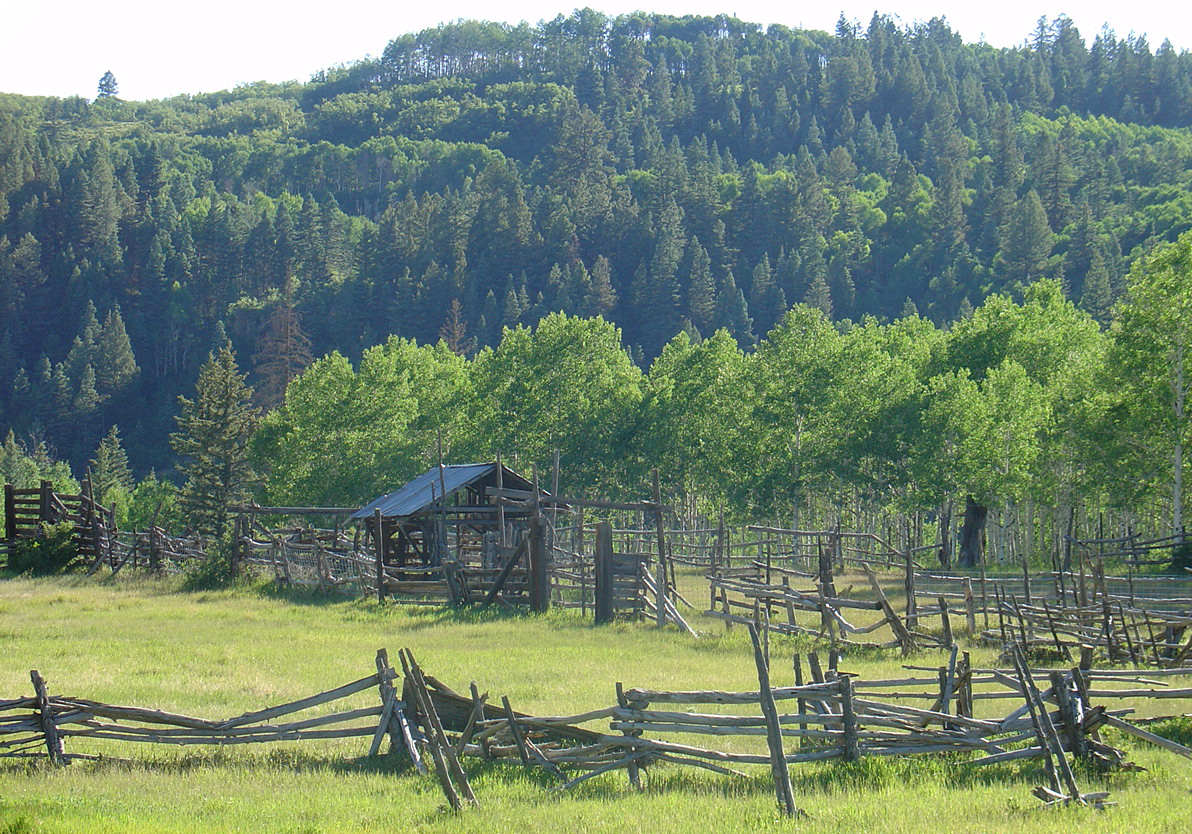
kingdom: Plantae
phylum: Tracheophyta
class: Magnoliopsida
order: Malpighiales
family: Salicaceae
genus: Populus
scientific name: Populus tremuloides
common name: Quaking aspen
